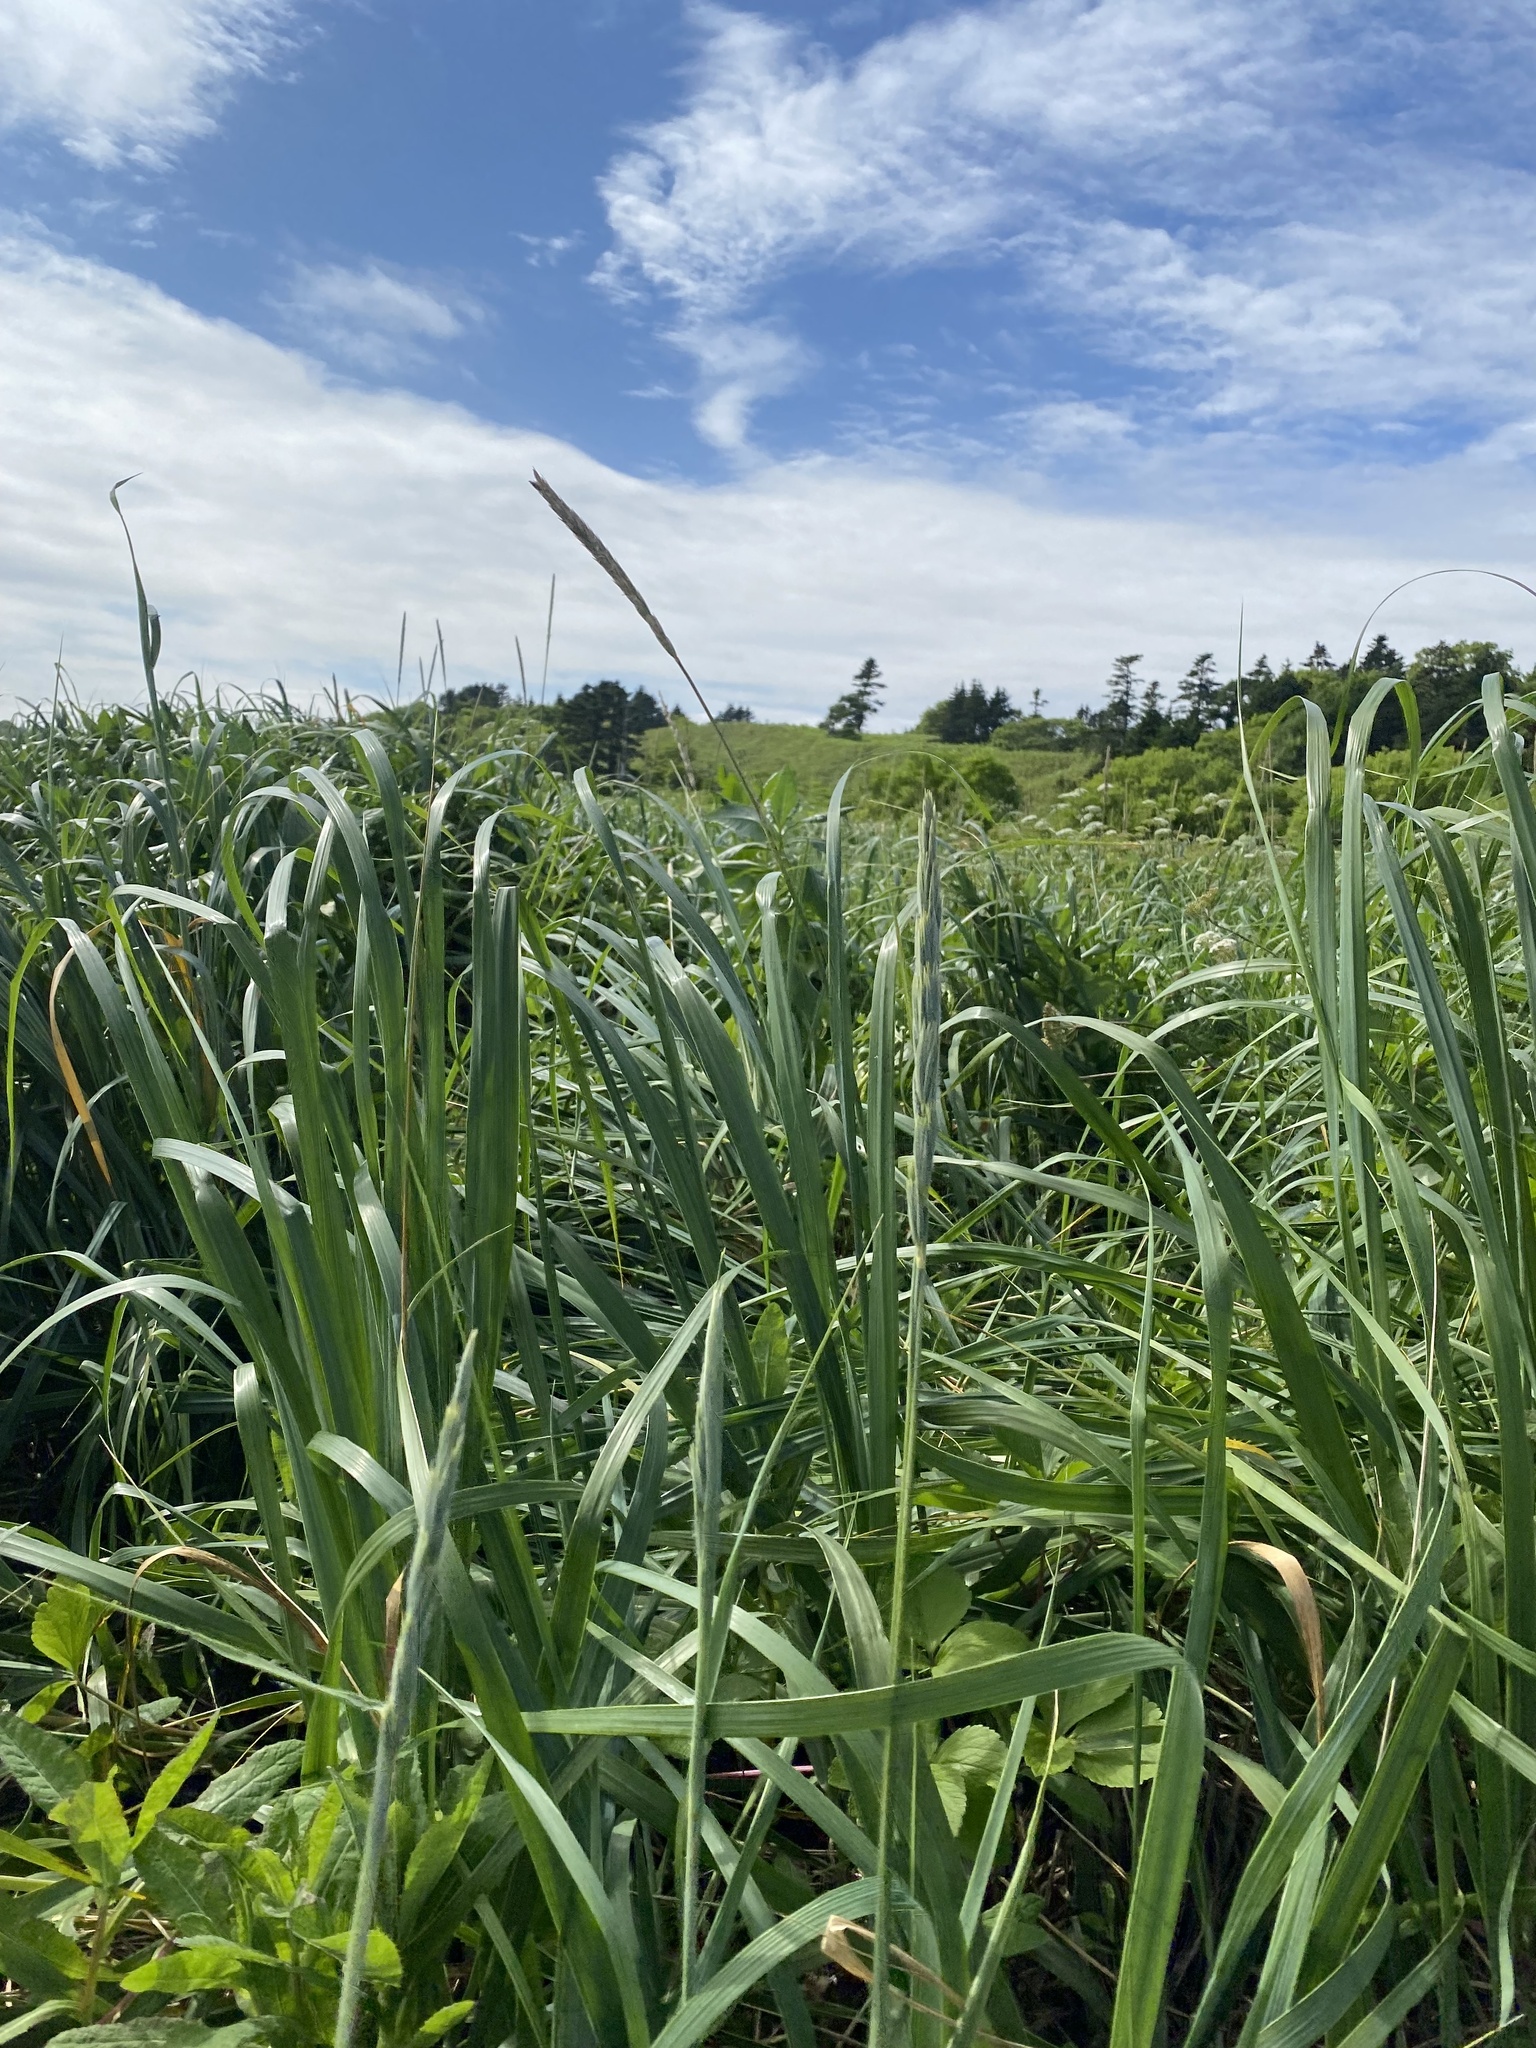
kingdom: Plantae
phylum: Tracheophyta
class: Liliopsida
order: Poales
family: Poaceae
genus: Leymus
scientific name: Leymus mollis
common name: American dune grass
